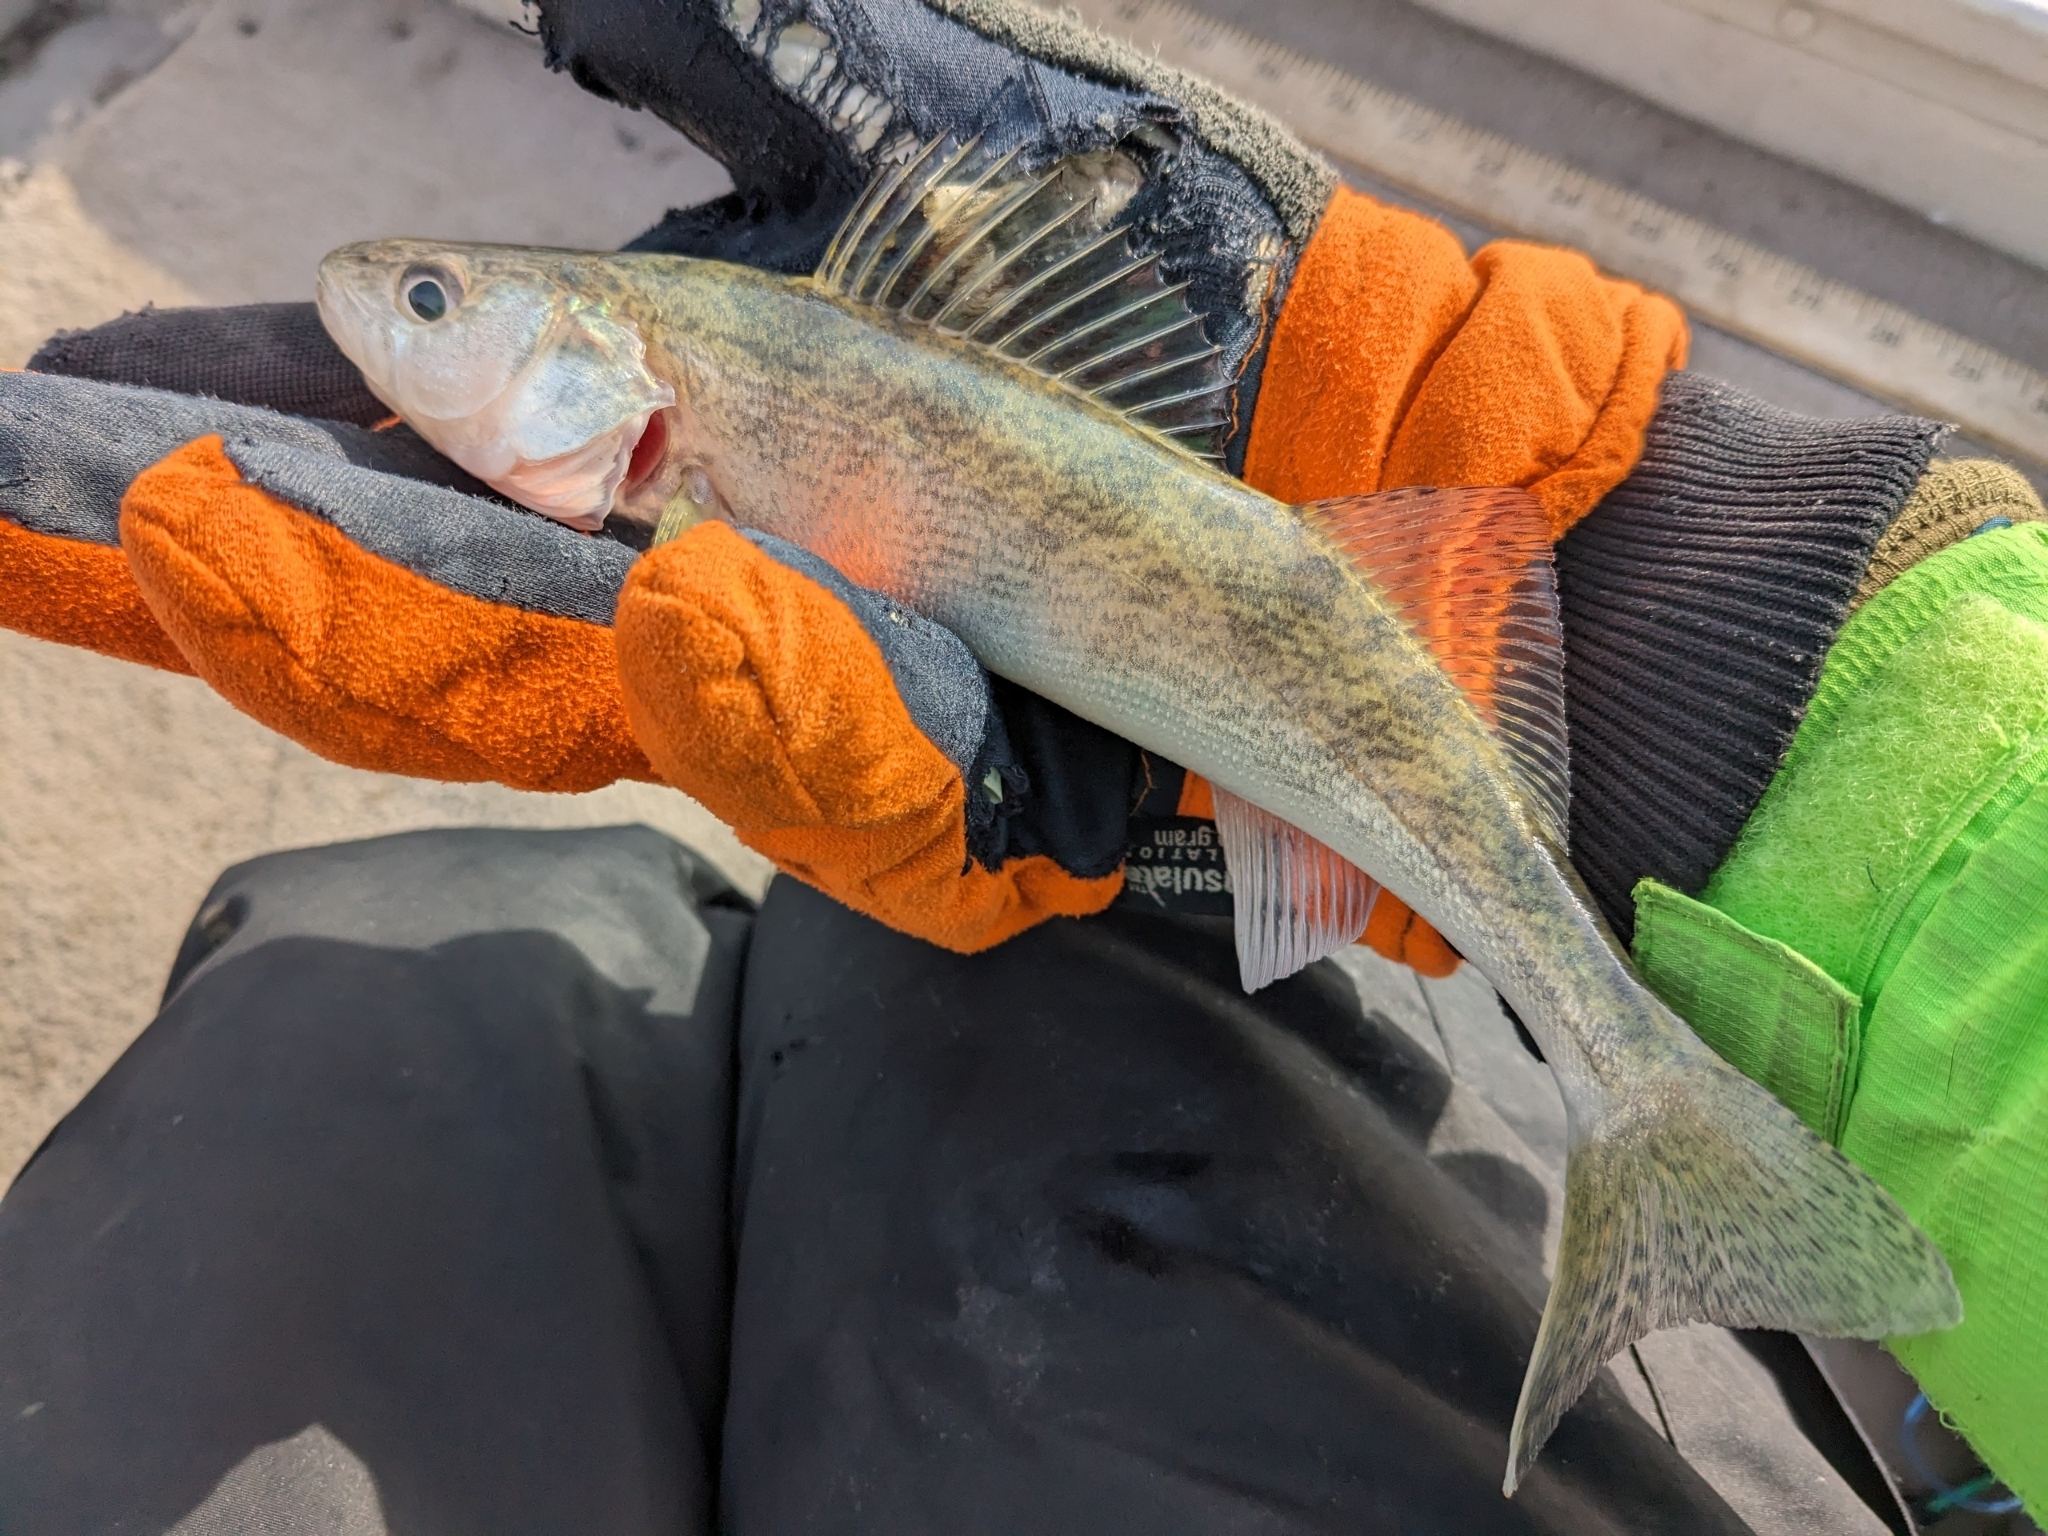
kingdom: Animalia
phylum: Chordata
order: Perciformes
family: Percidae
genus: Sander
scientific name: Sander vitreus
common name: Walleye
